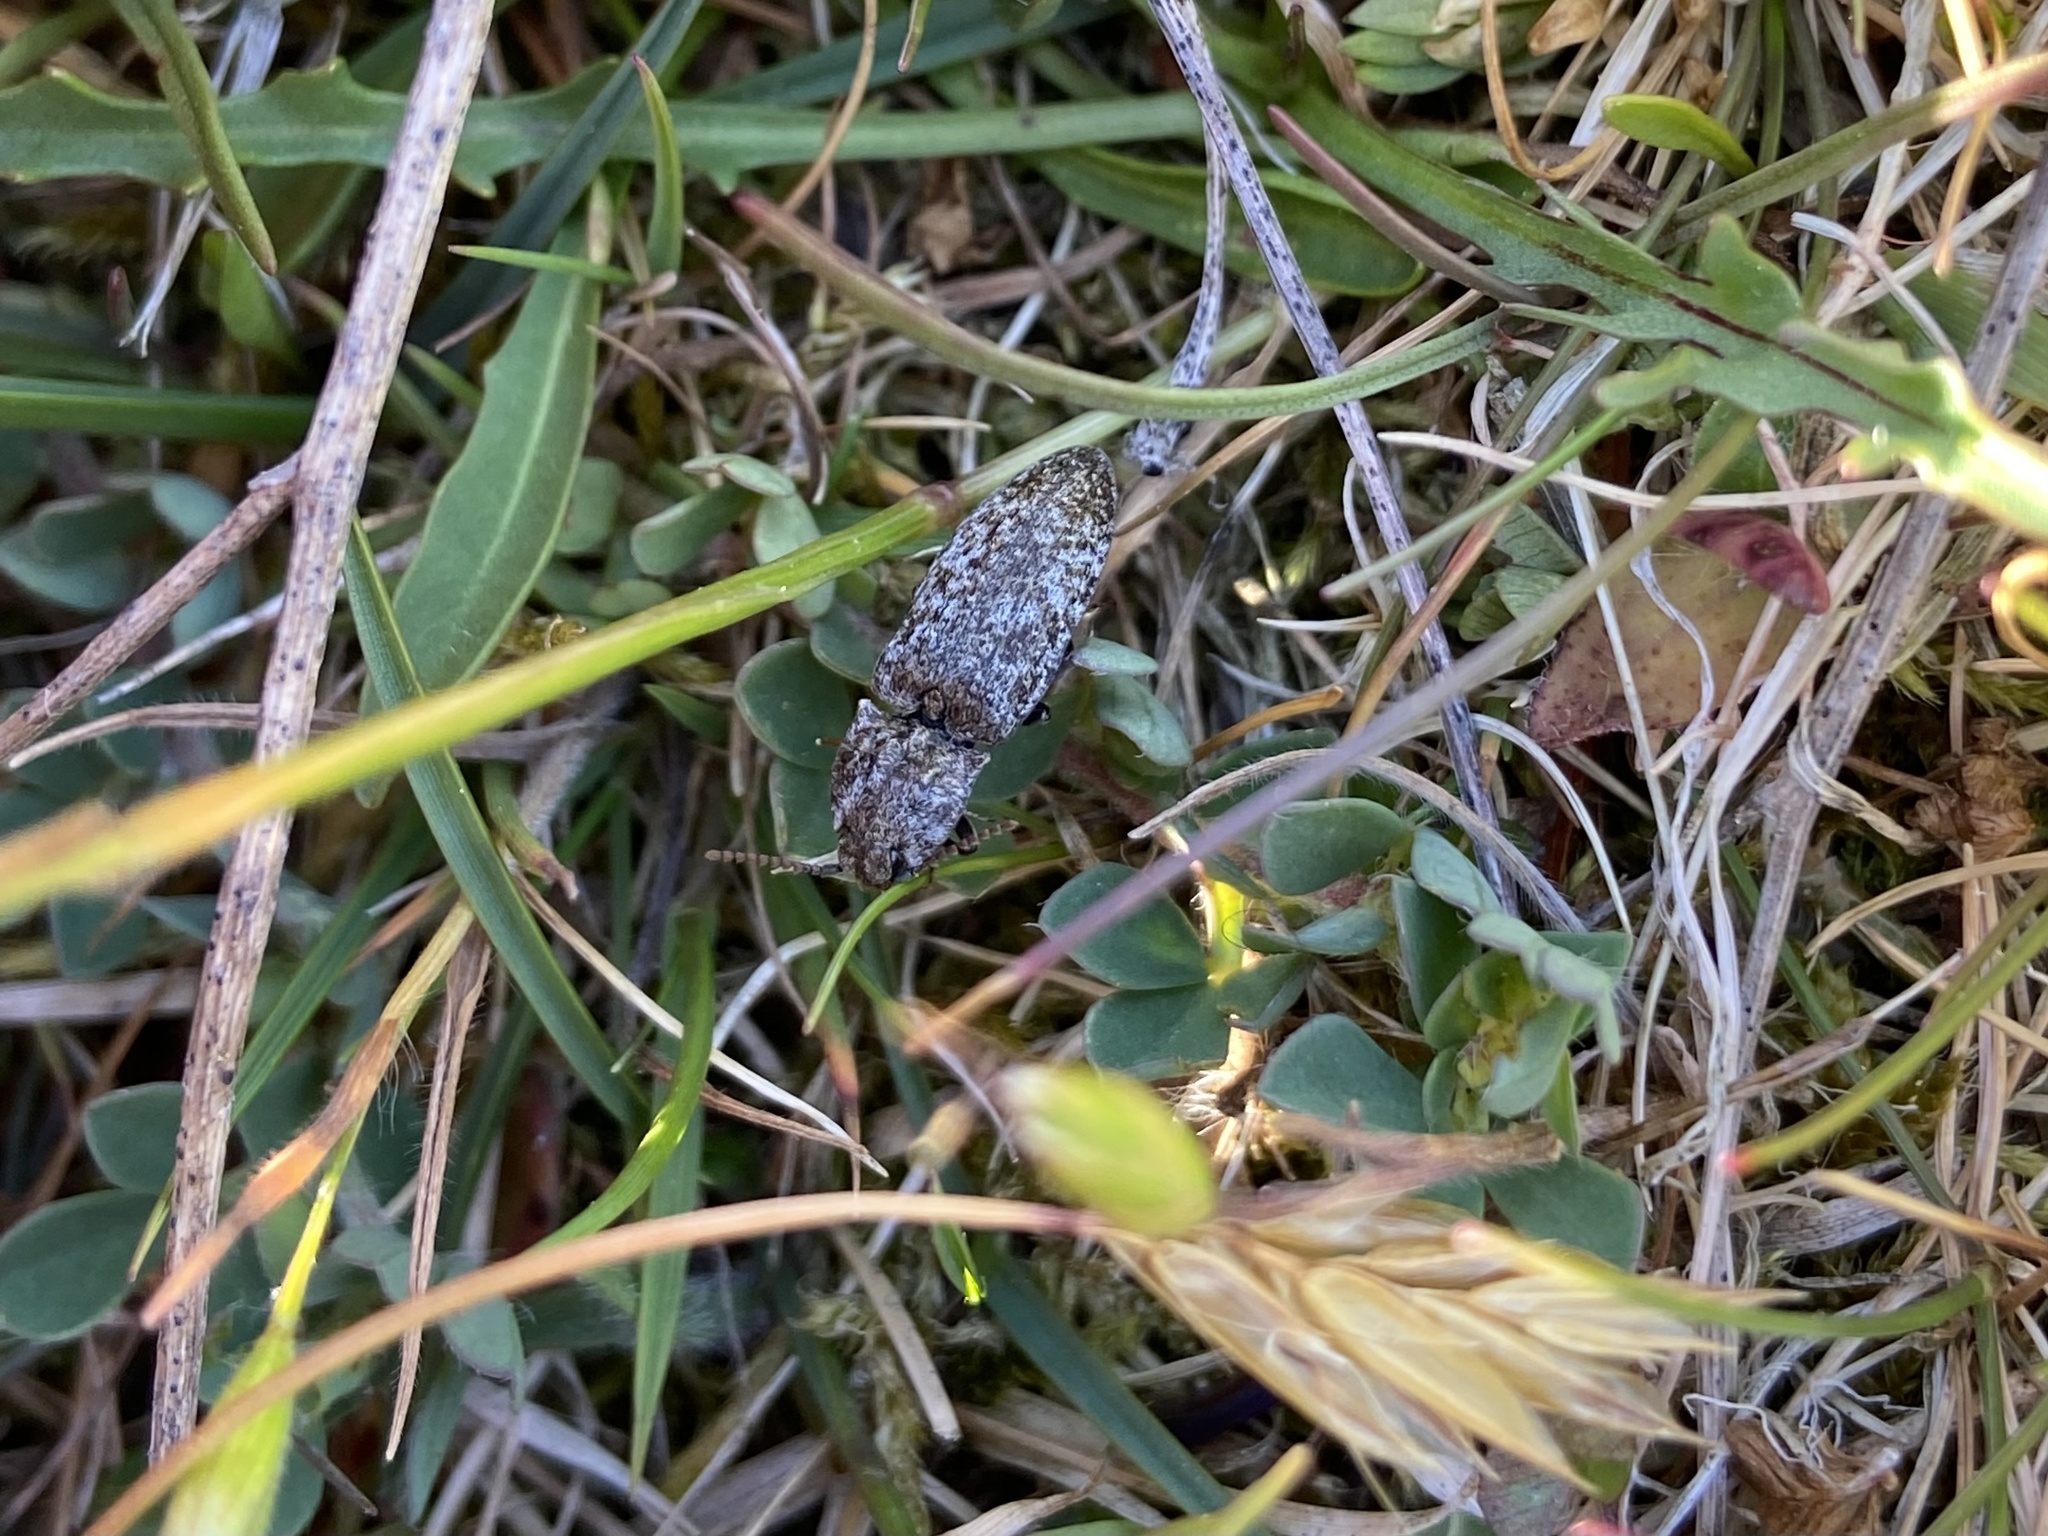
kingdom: Animalia
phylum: Arthropoda
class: Insecta
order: Coleoptera
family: Elateridae
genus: Agrypnus
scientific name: Agrypnus murinus
